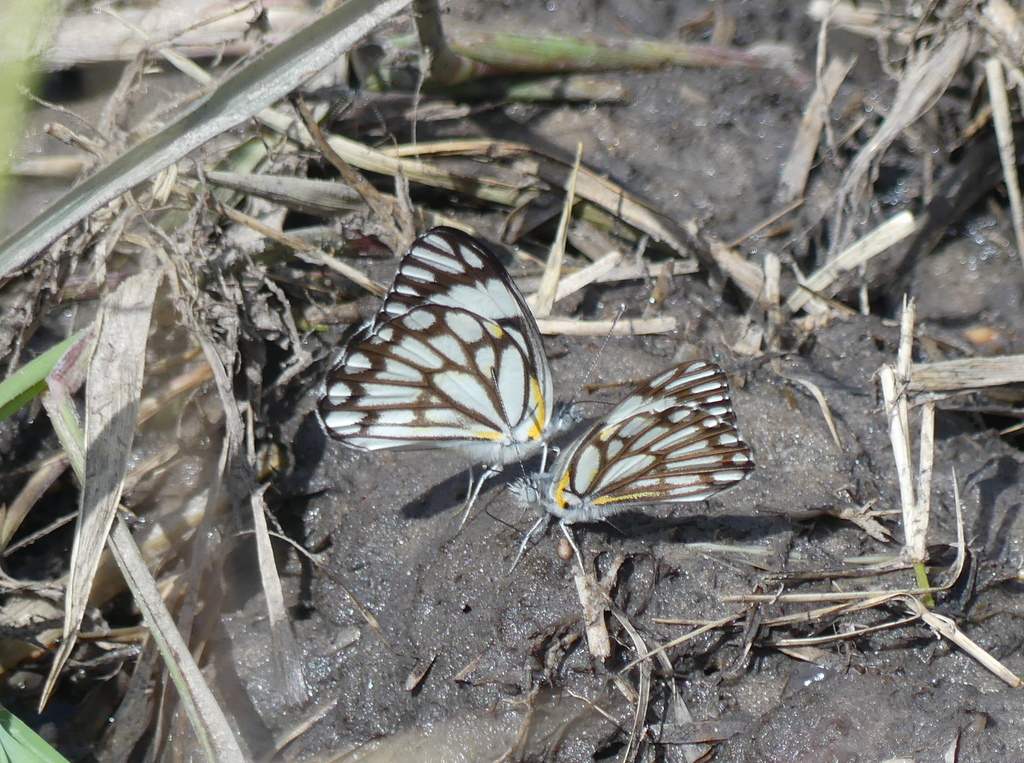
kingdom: Animalia
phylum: Arthropoda
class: Insecta
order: Lepidoptera
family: Pieridae
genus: Belenois
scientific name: Belenois aurota
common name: Brown-veined white
